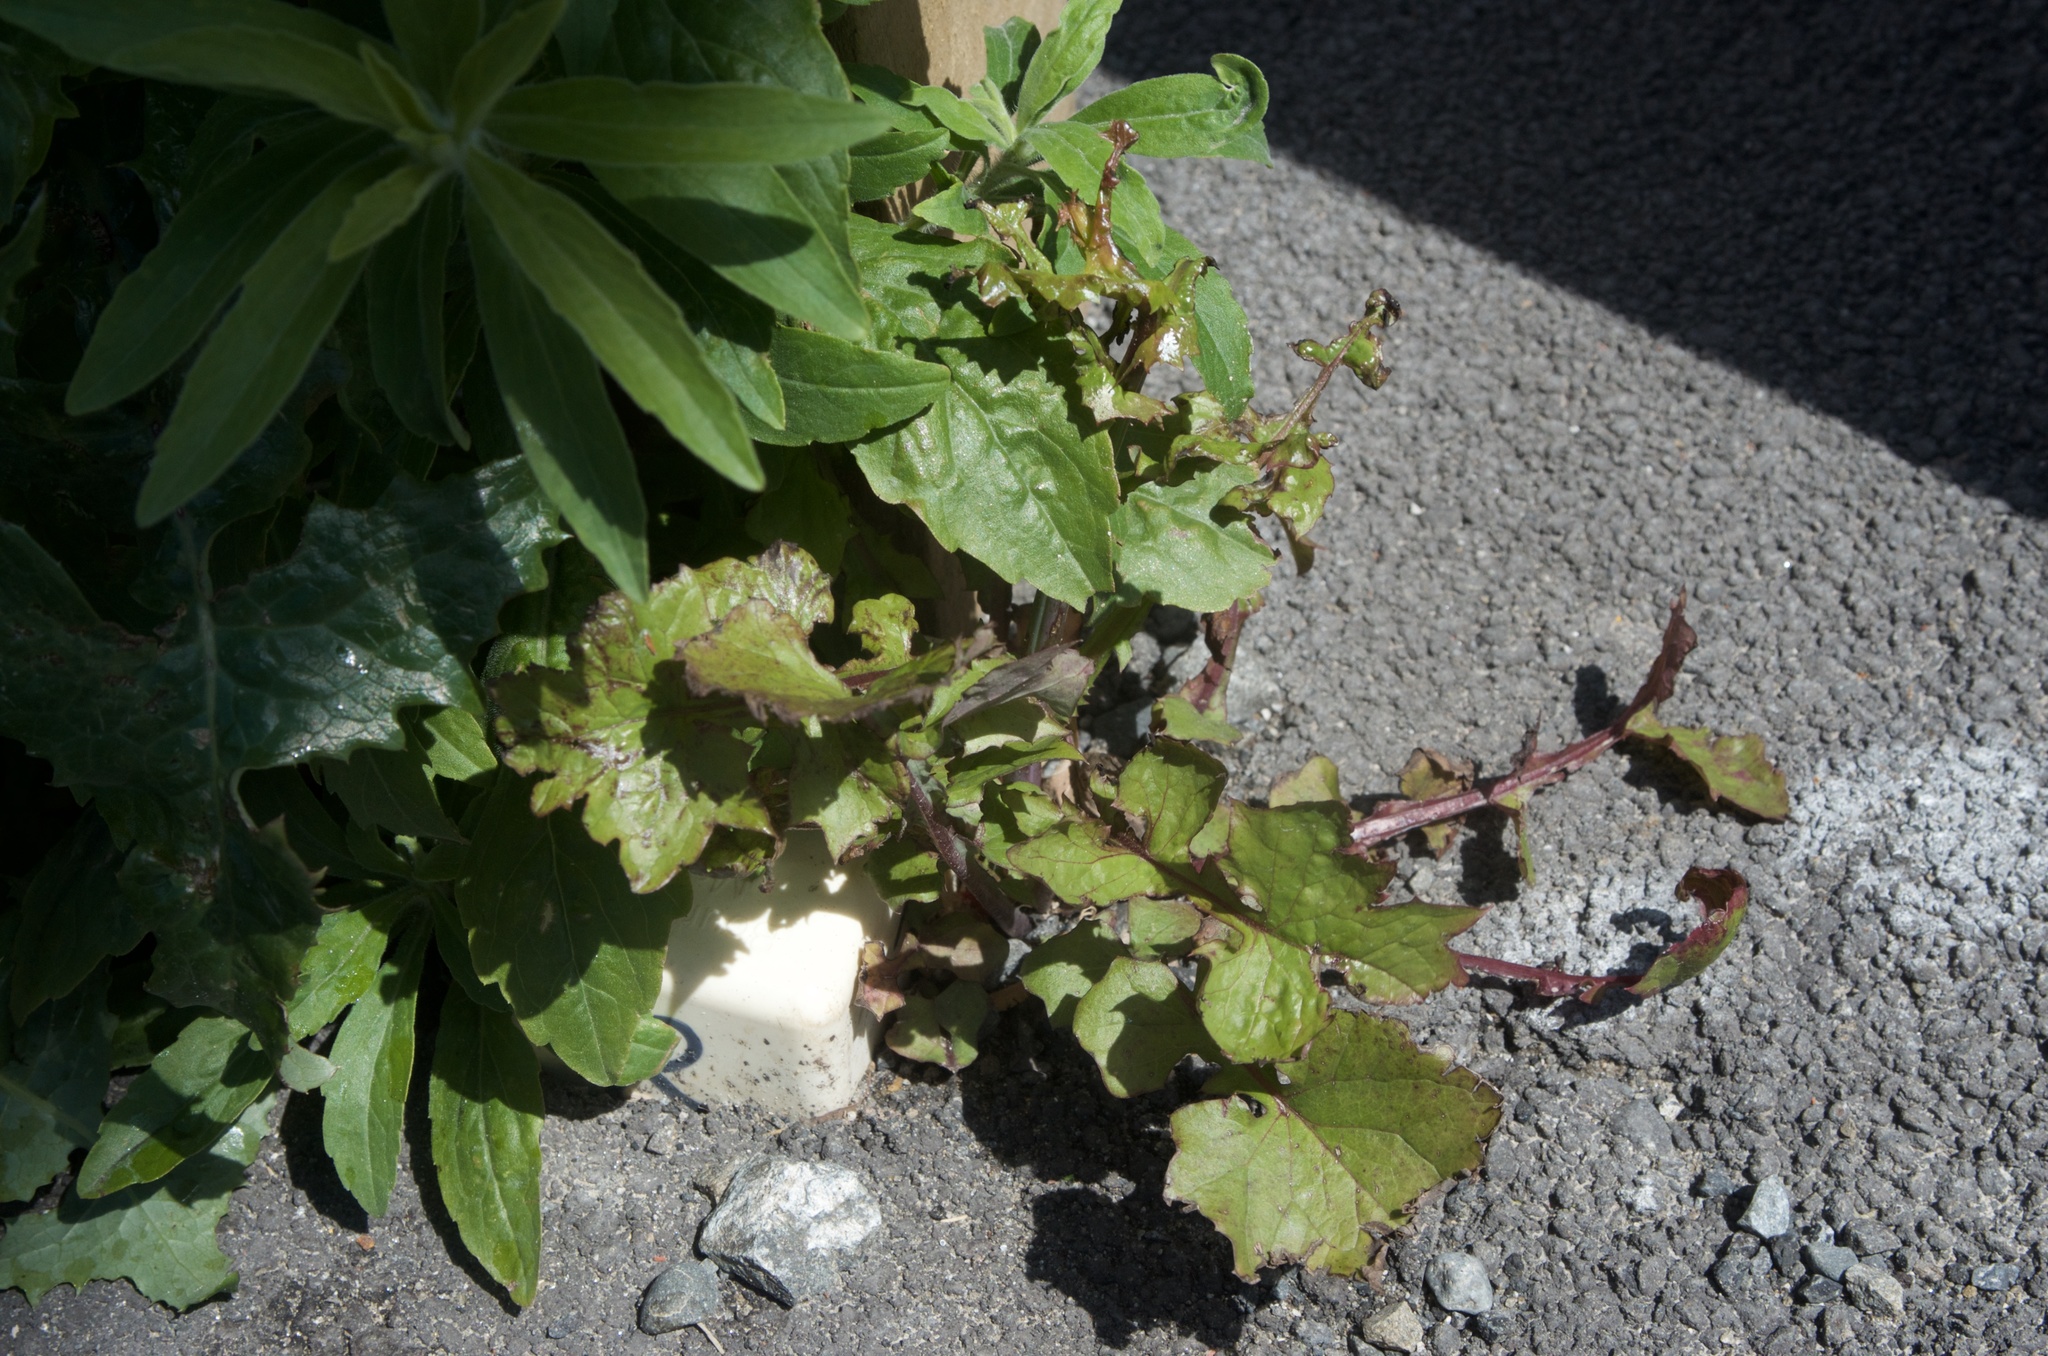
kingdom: Plantae
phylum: Tracheophyta
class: Magnoliopsida
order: Asterales
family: Asteraceae
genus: Mycelis
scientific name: Mycelis muralis
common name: Wall lettuce
